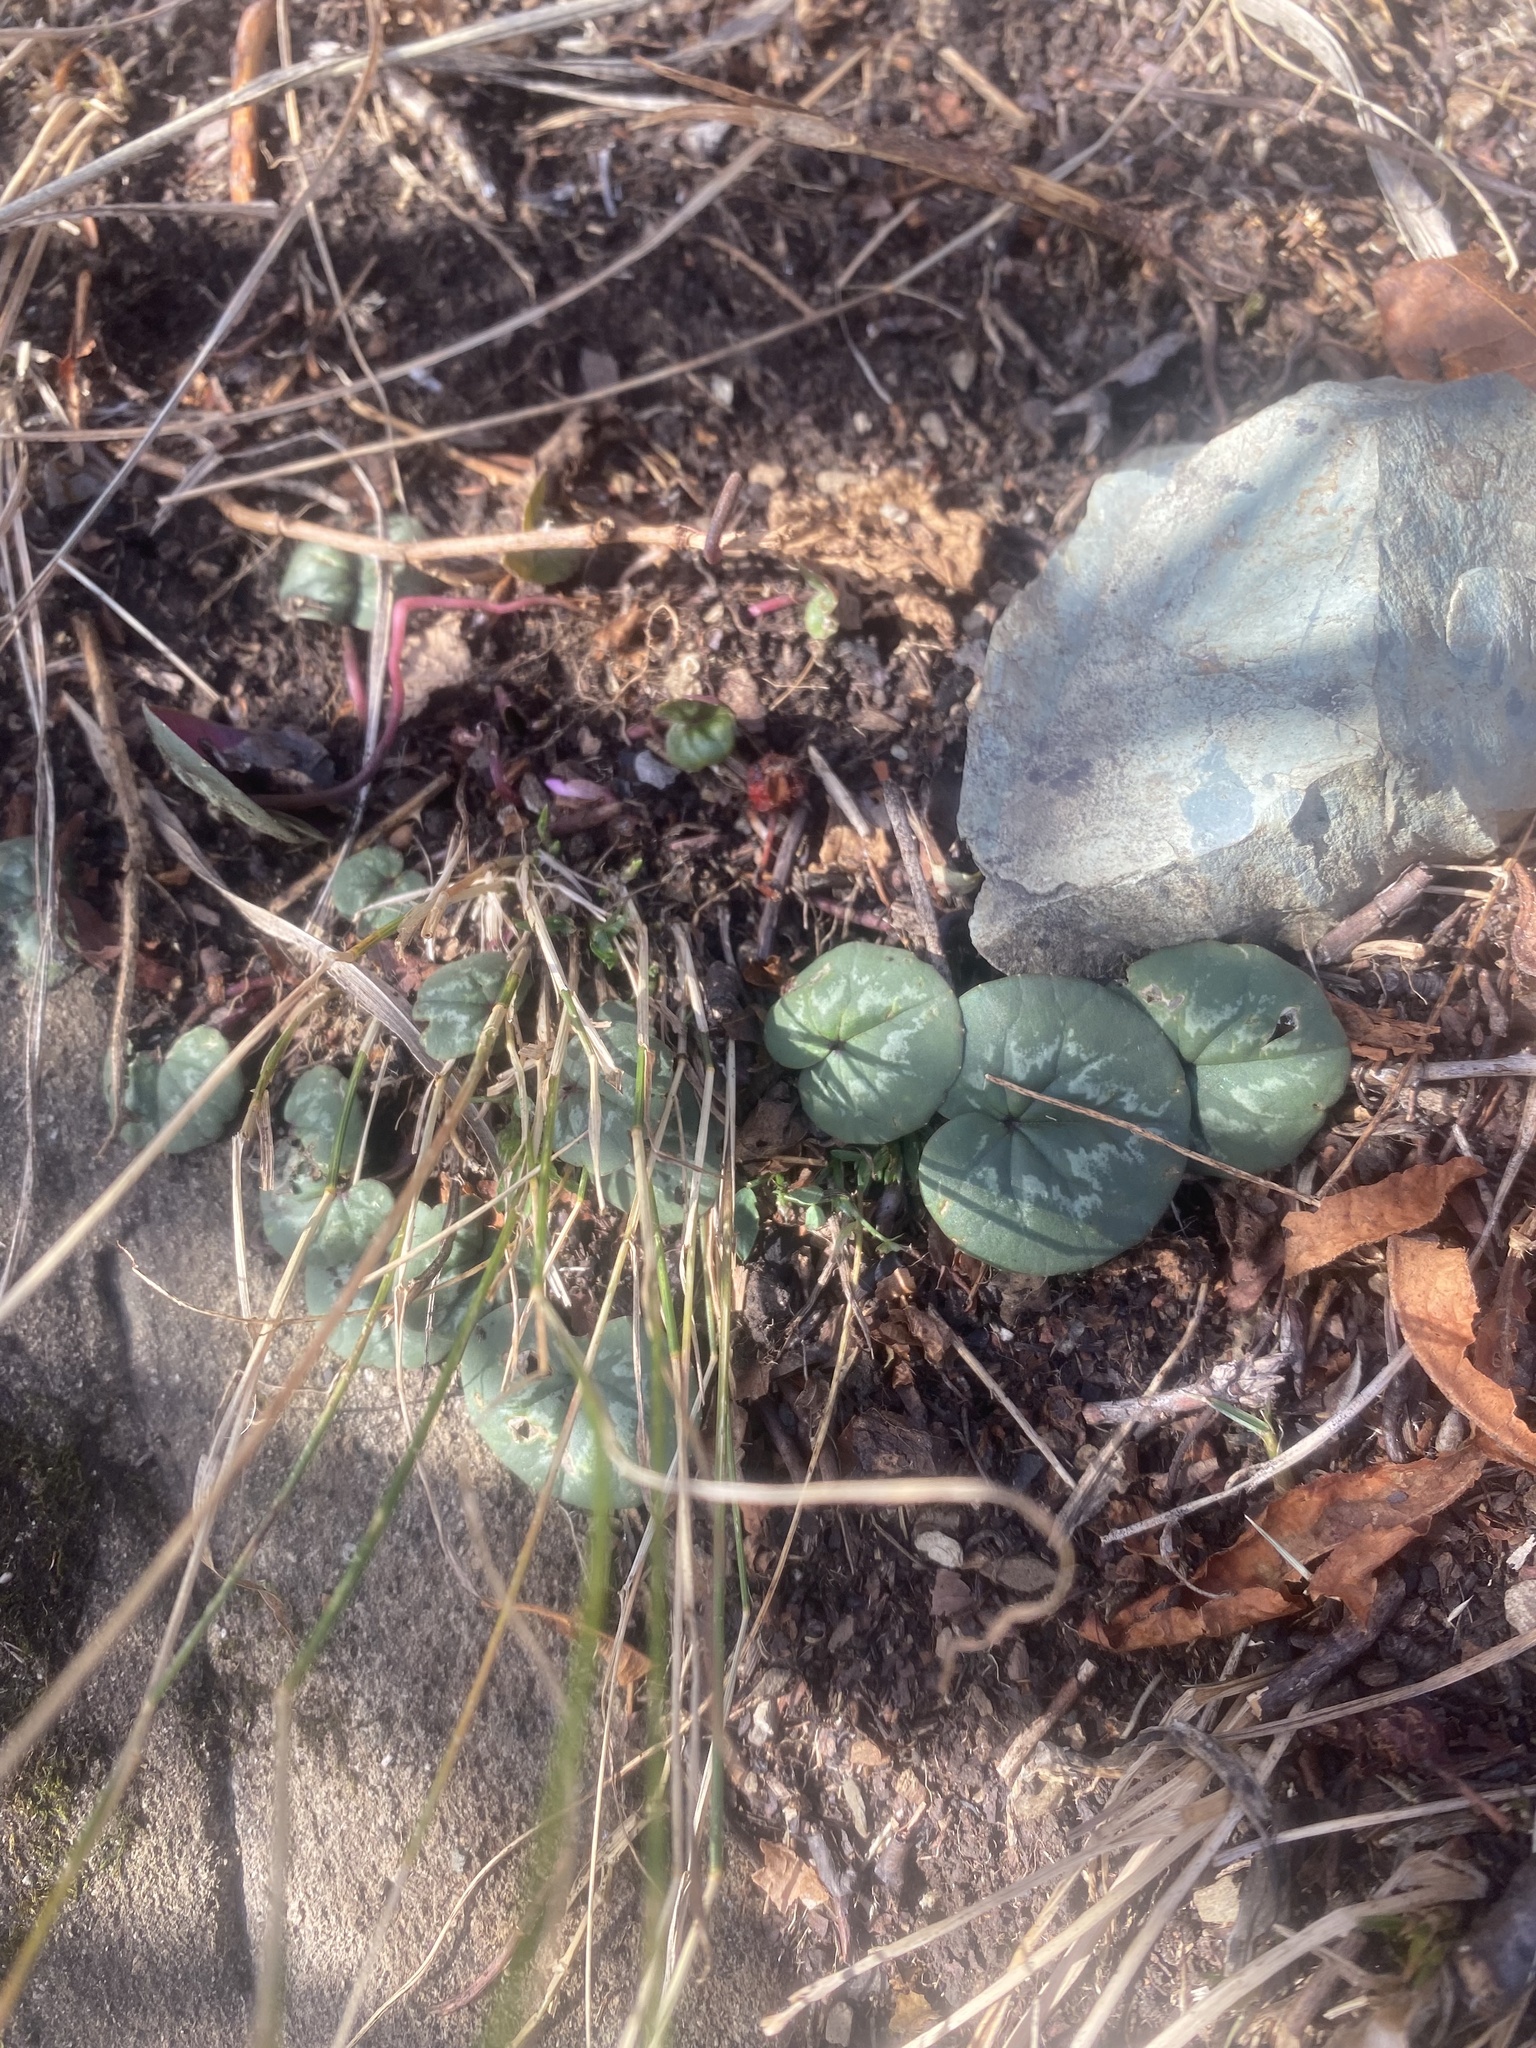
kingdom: Plantae
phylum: Tracheophyta
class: Magnoliopsida
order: Ericales
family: Primulaceae
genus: Cyclamen
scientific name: Cyclamen coum
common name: Eastern sowbread
